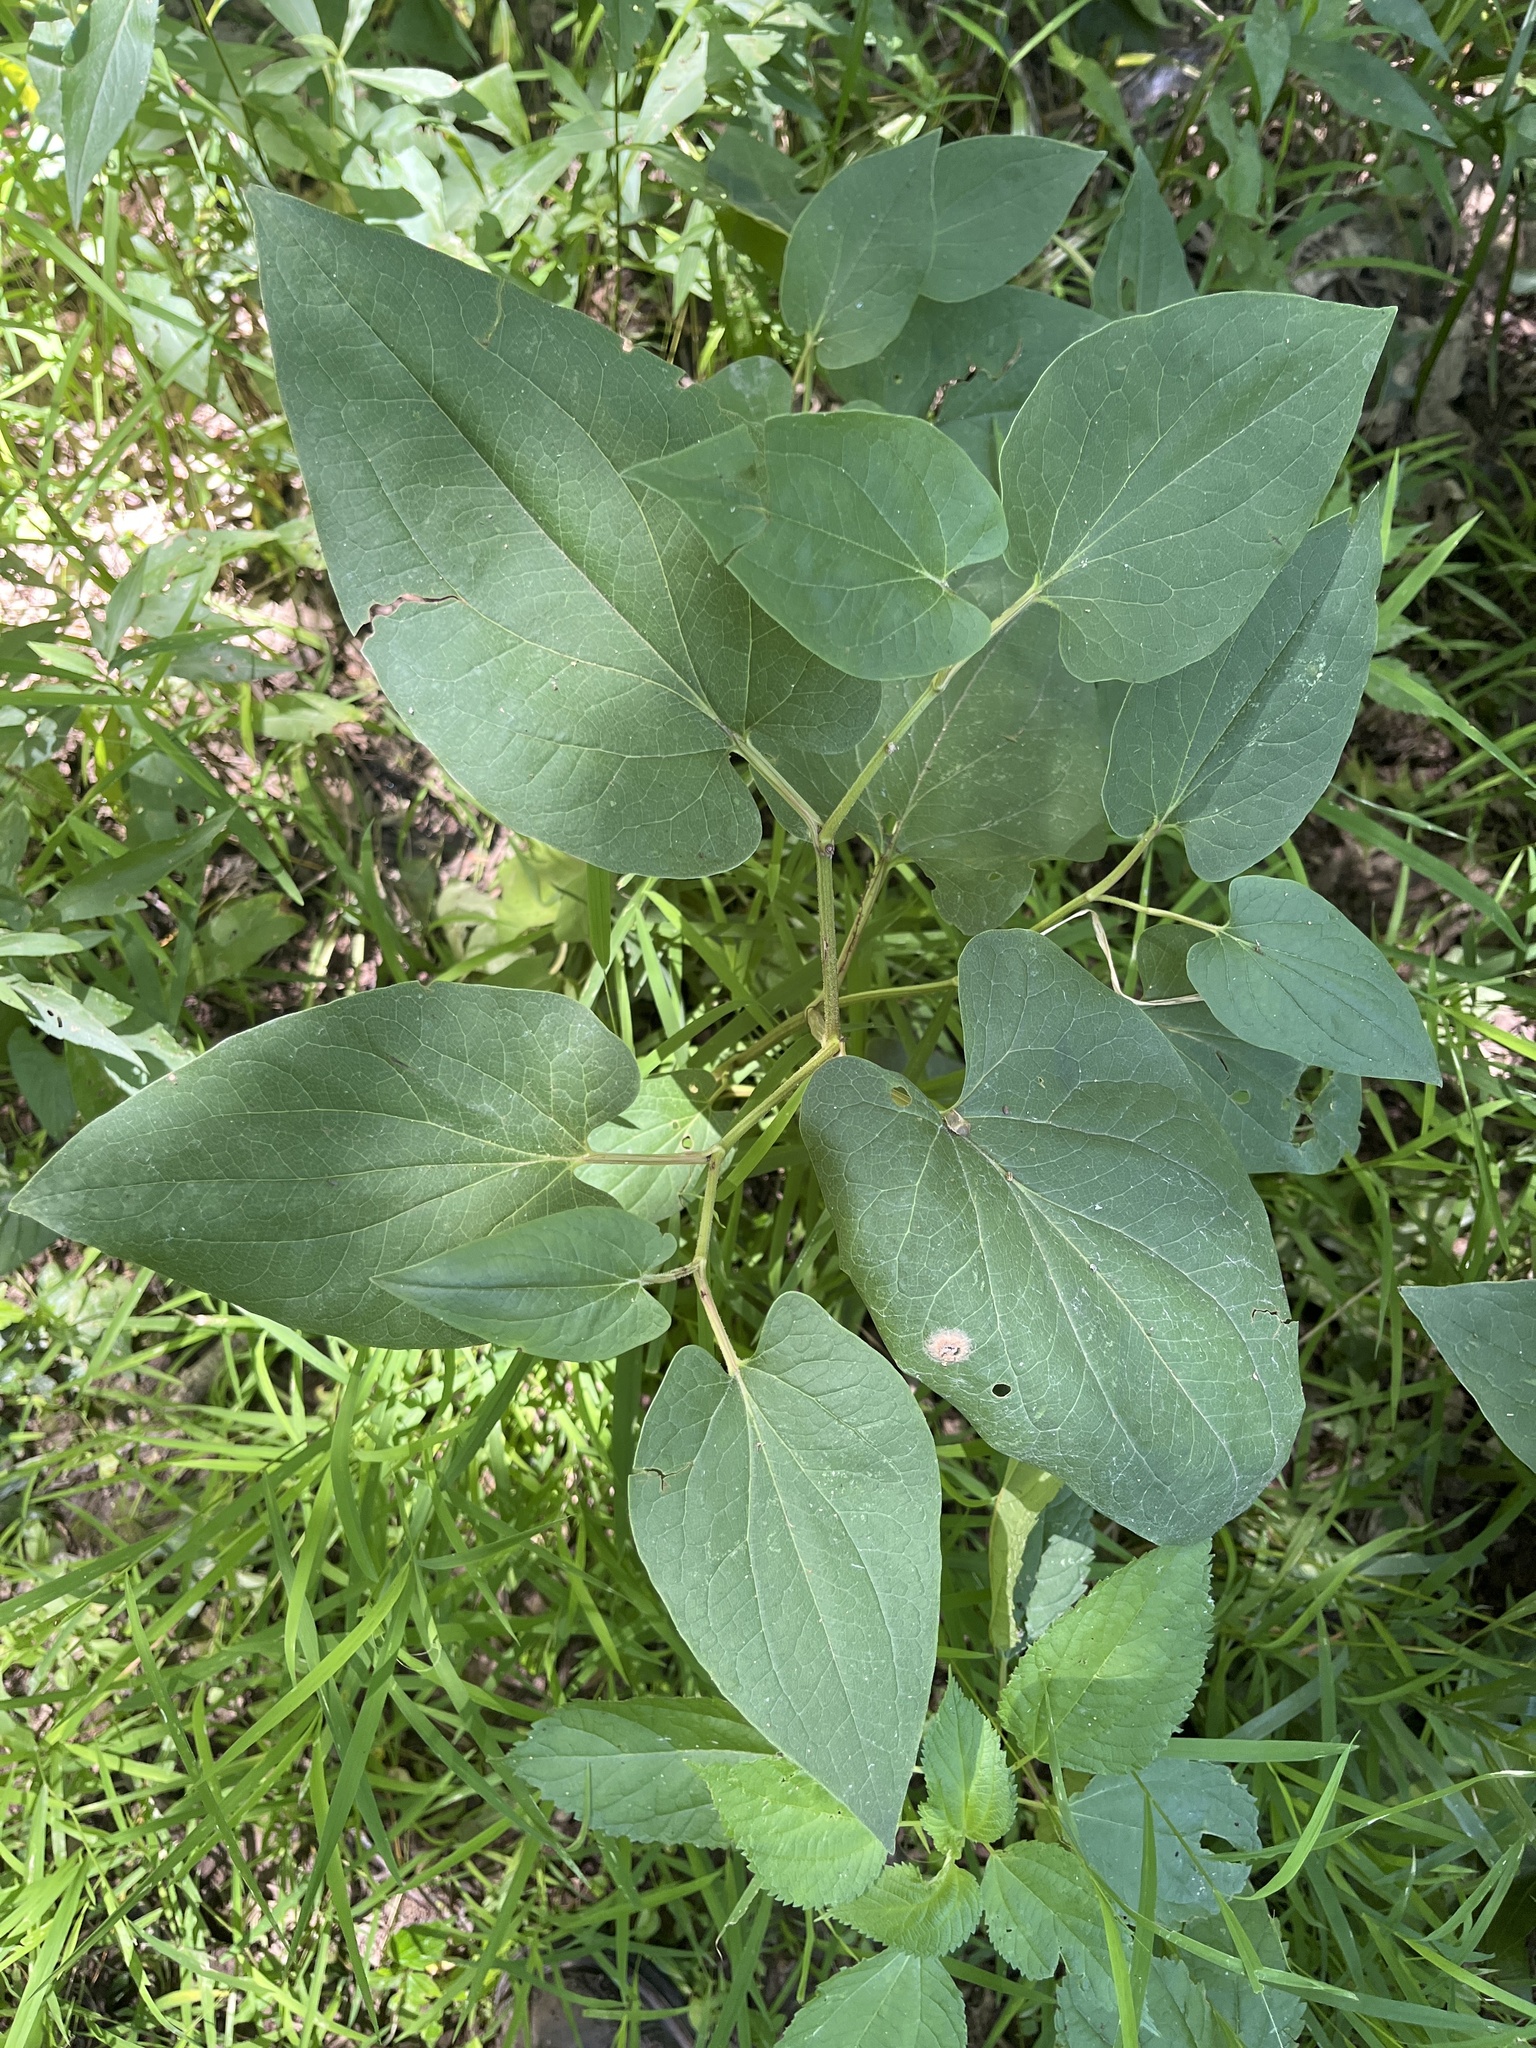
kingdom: Plantae
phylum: Tracheophyta
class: Magnoliopsida
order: Piperales
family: Saururaceae
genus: Saururus
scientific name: Saururus cernuus
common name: Lizard's-tail
